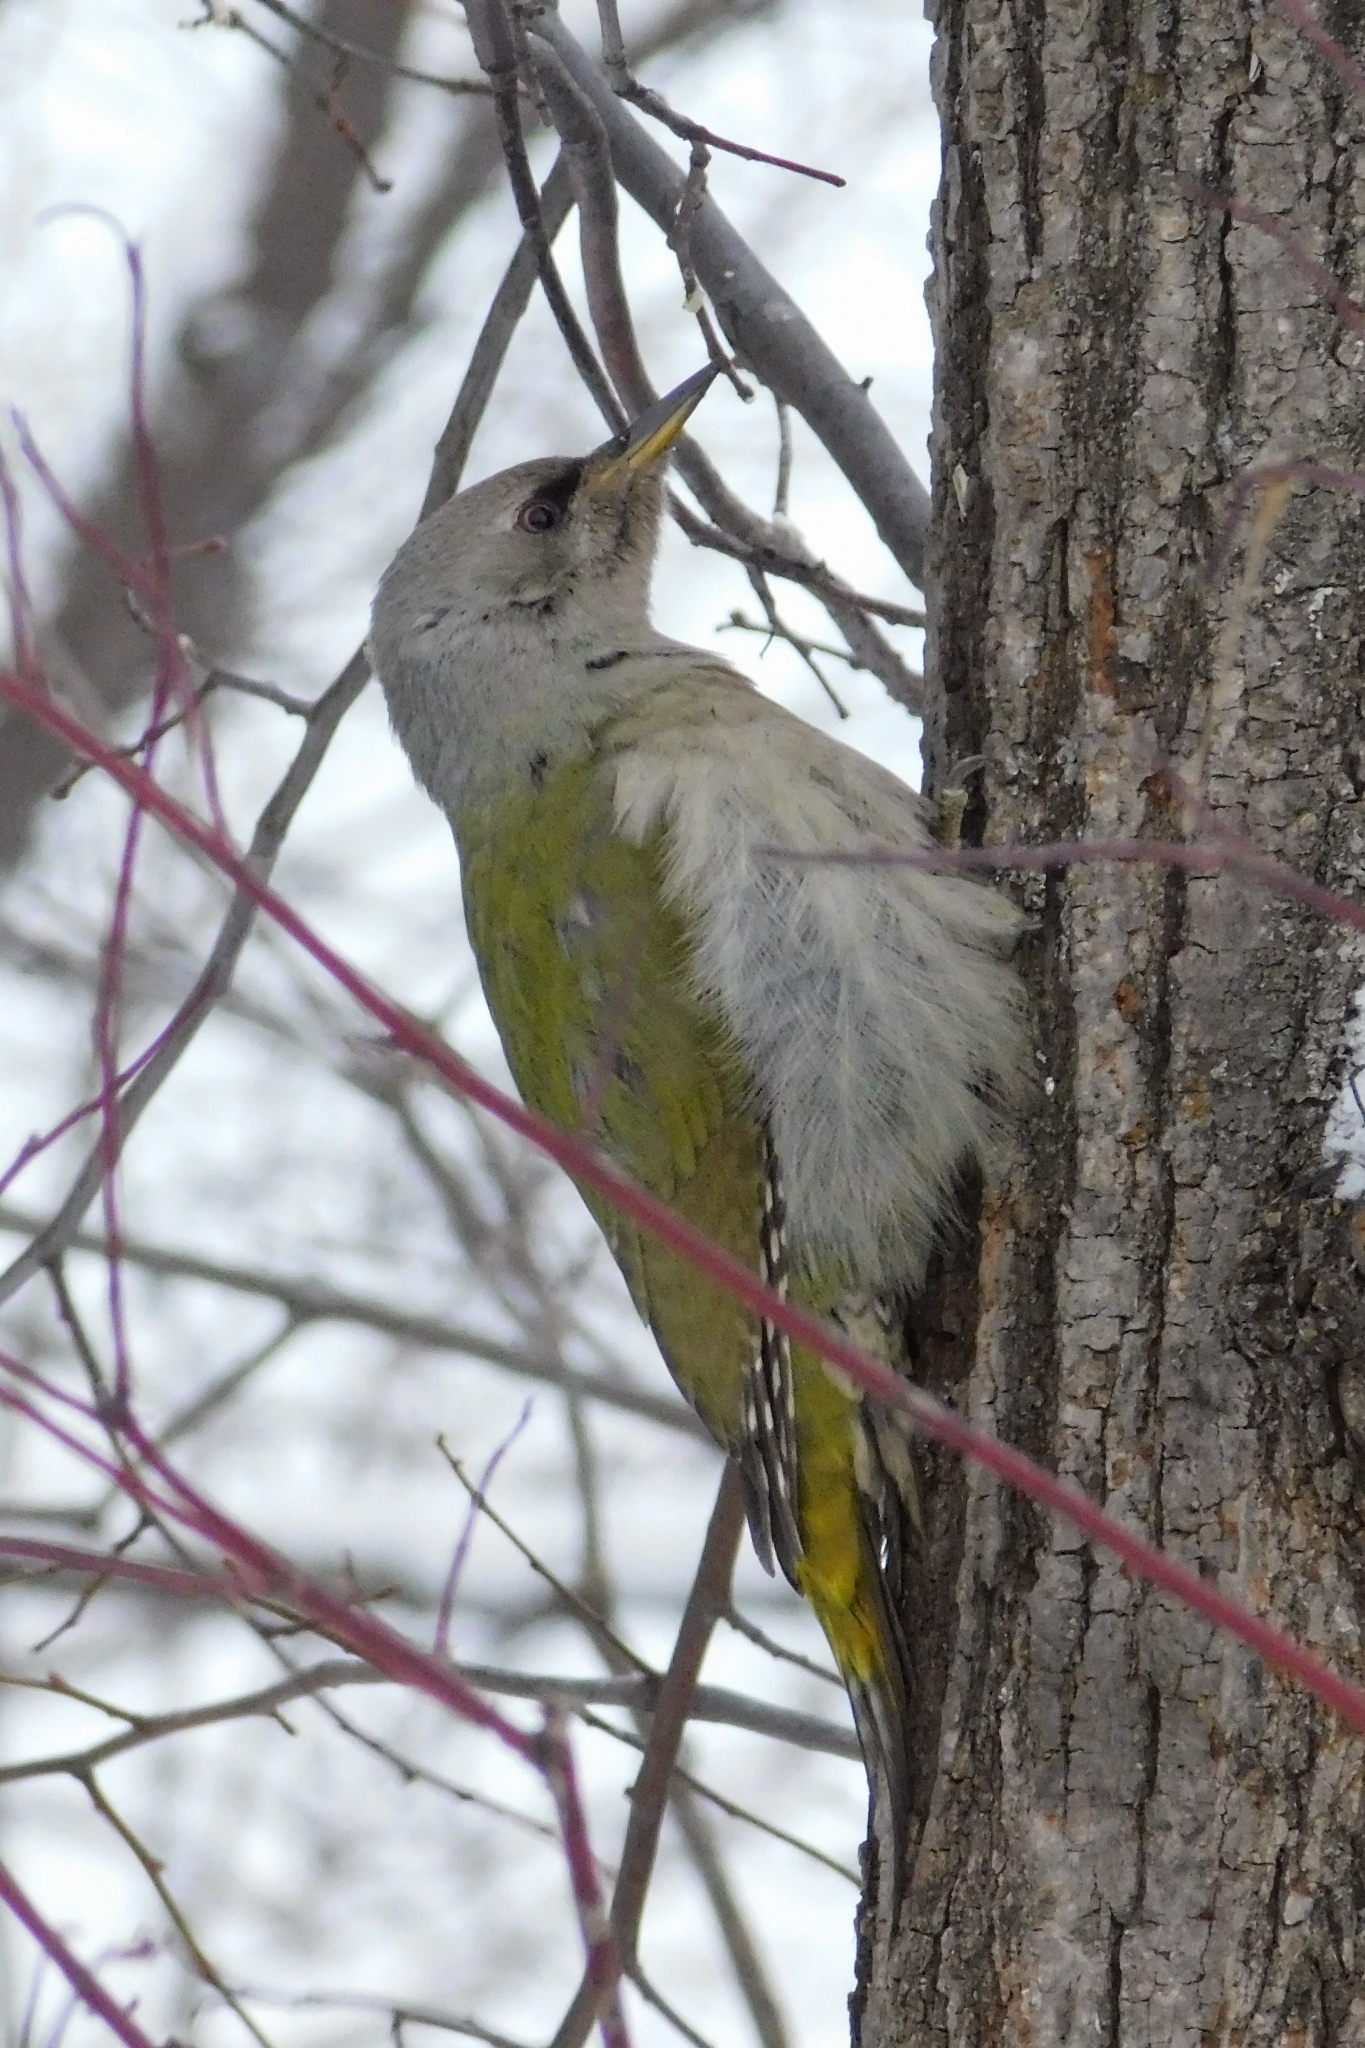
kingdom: Animalia
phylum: Chordata
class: Aves
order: Piciformes
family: Picidae
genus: Picus
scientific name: Picus canus
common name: Grey-headed woodpecker
